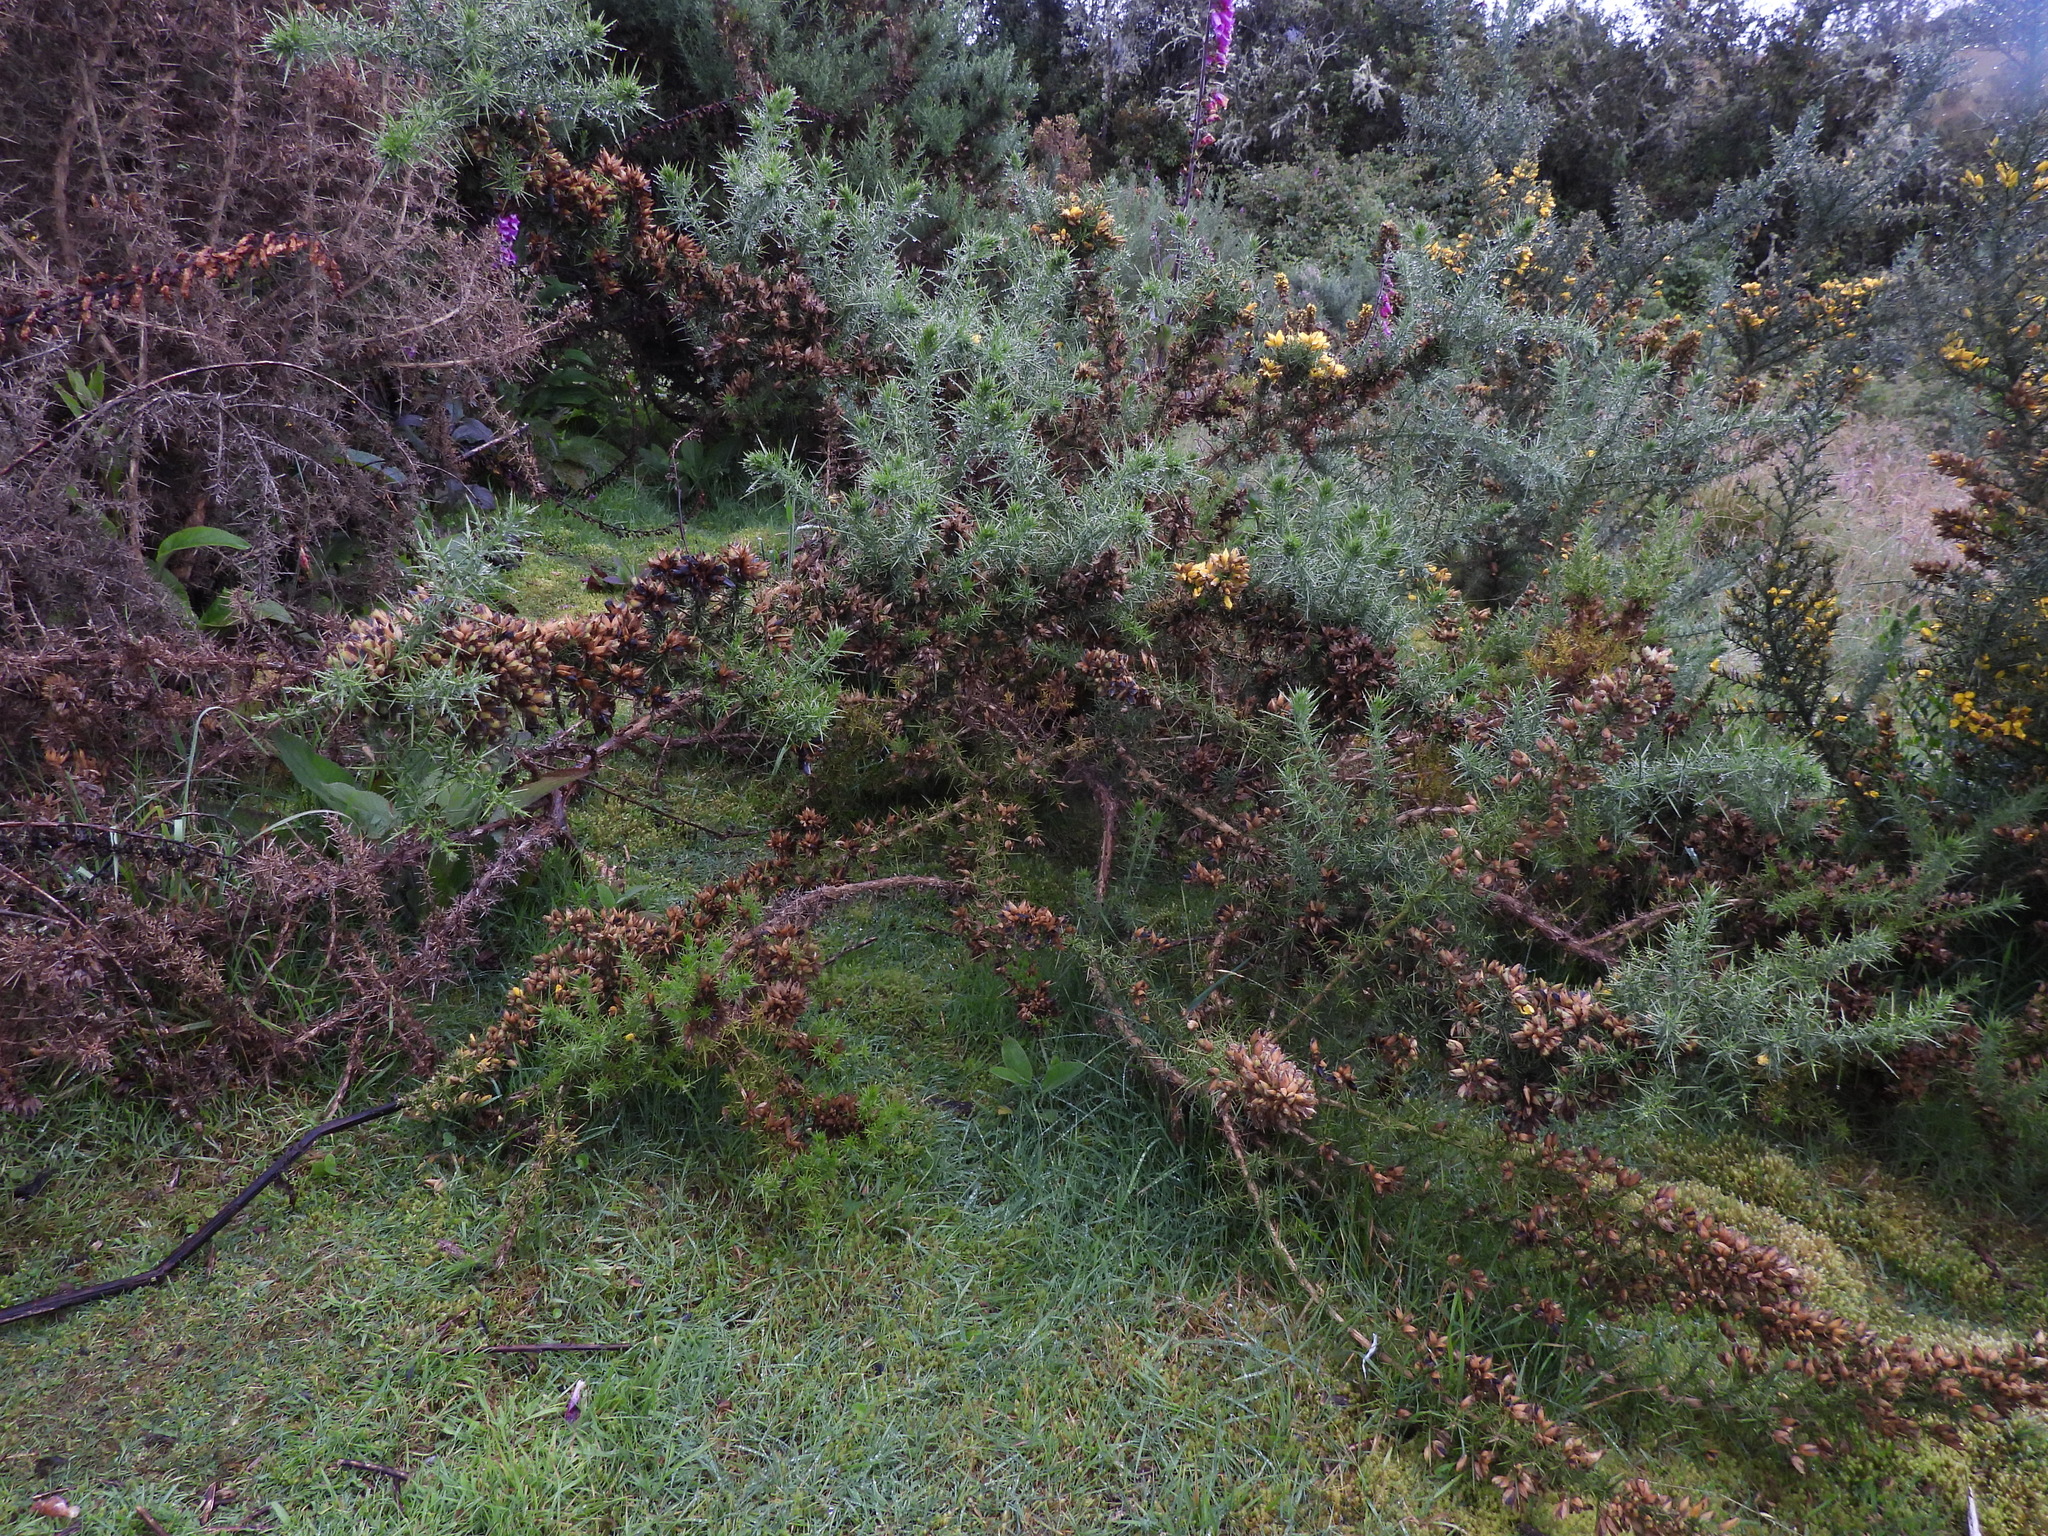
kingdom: Plantae
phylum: Tracheophyta
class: Magnoliopsida
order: Fabales
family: Fabaceae
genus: Ulex
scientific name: Ulex europaeus
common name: Common gorse
